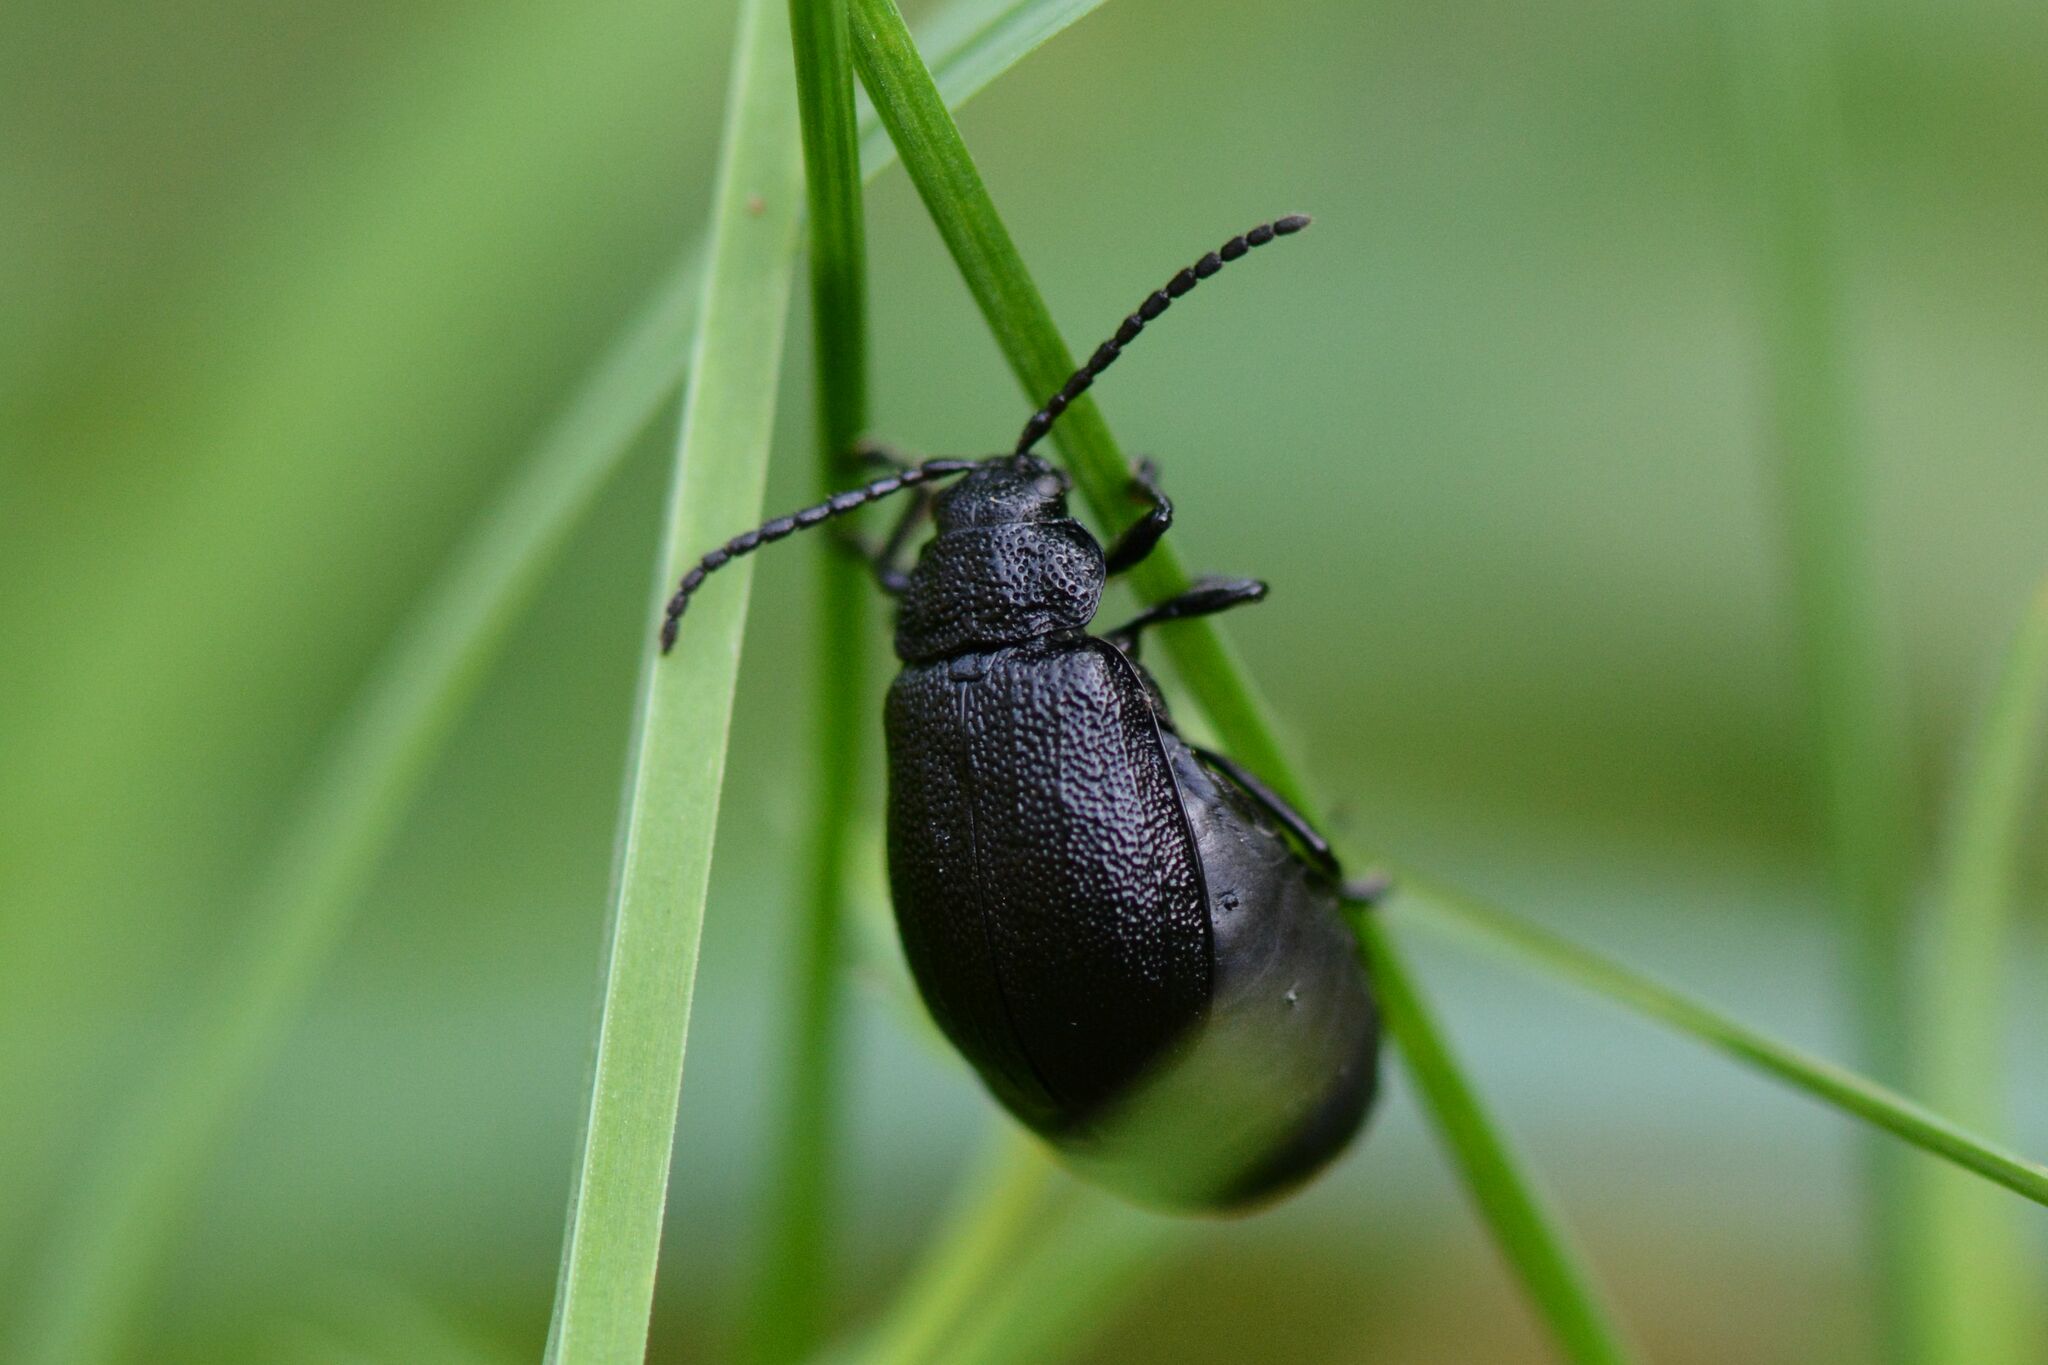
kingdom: Animalia
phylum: Arthropoda
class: Insecta
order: Coleoptera
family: Chrysomelidae
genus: Galeruca
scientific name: Galeruca tanaceti
